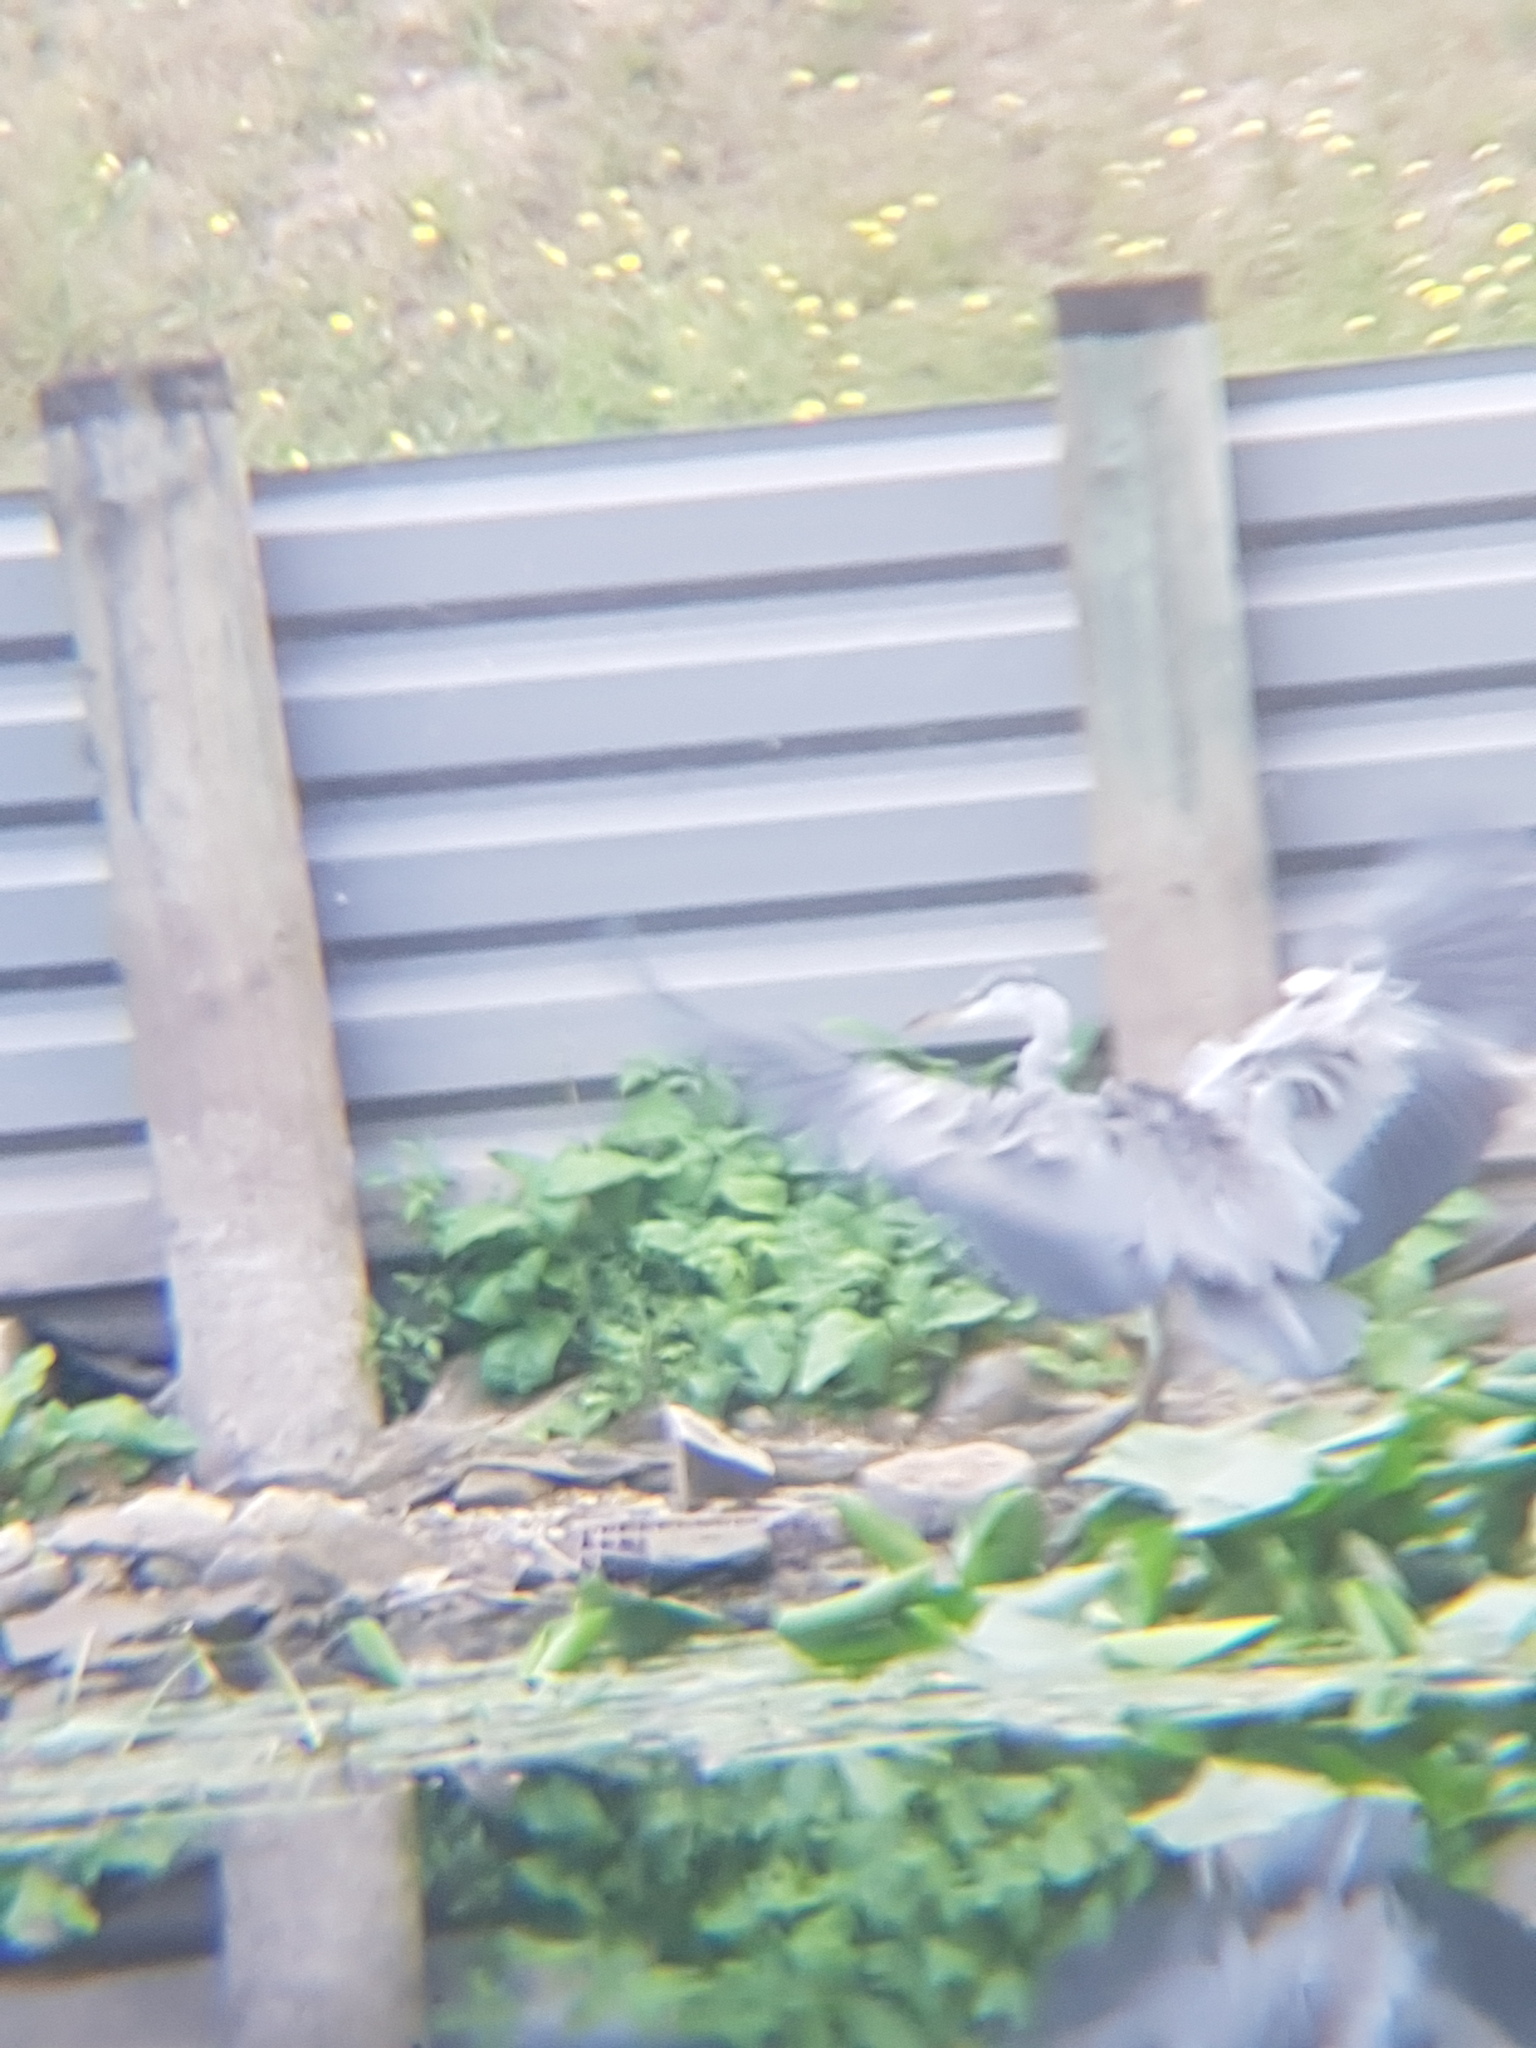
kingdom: Animalia
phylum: Chordata
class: Aves
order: Pelecaniformes
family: Ardeidae
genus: Ardea
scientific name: Ardea cinerea
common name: Grey heron
